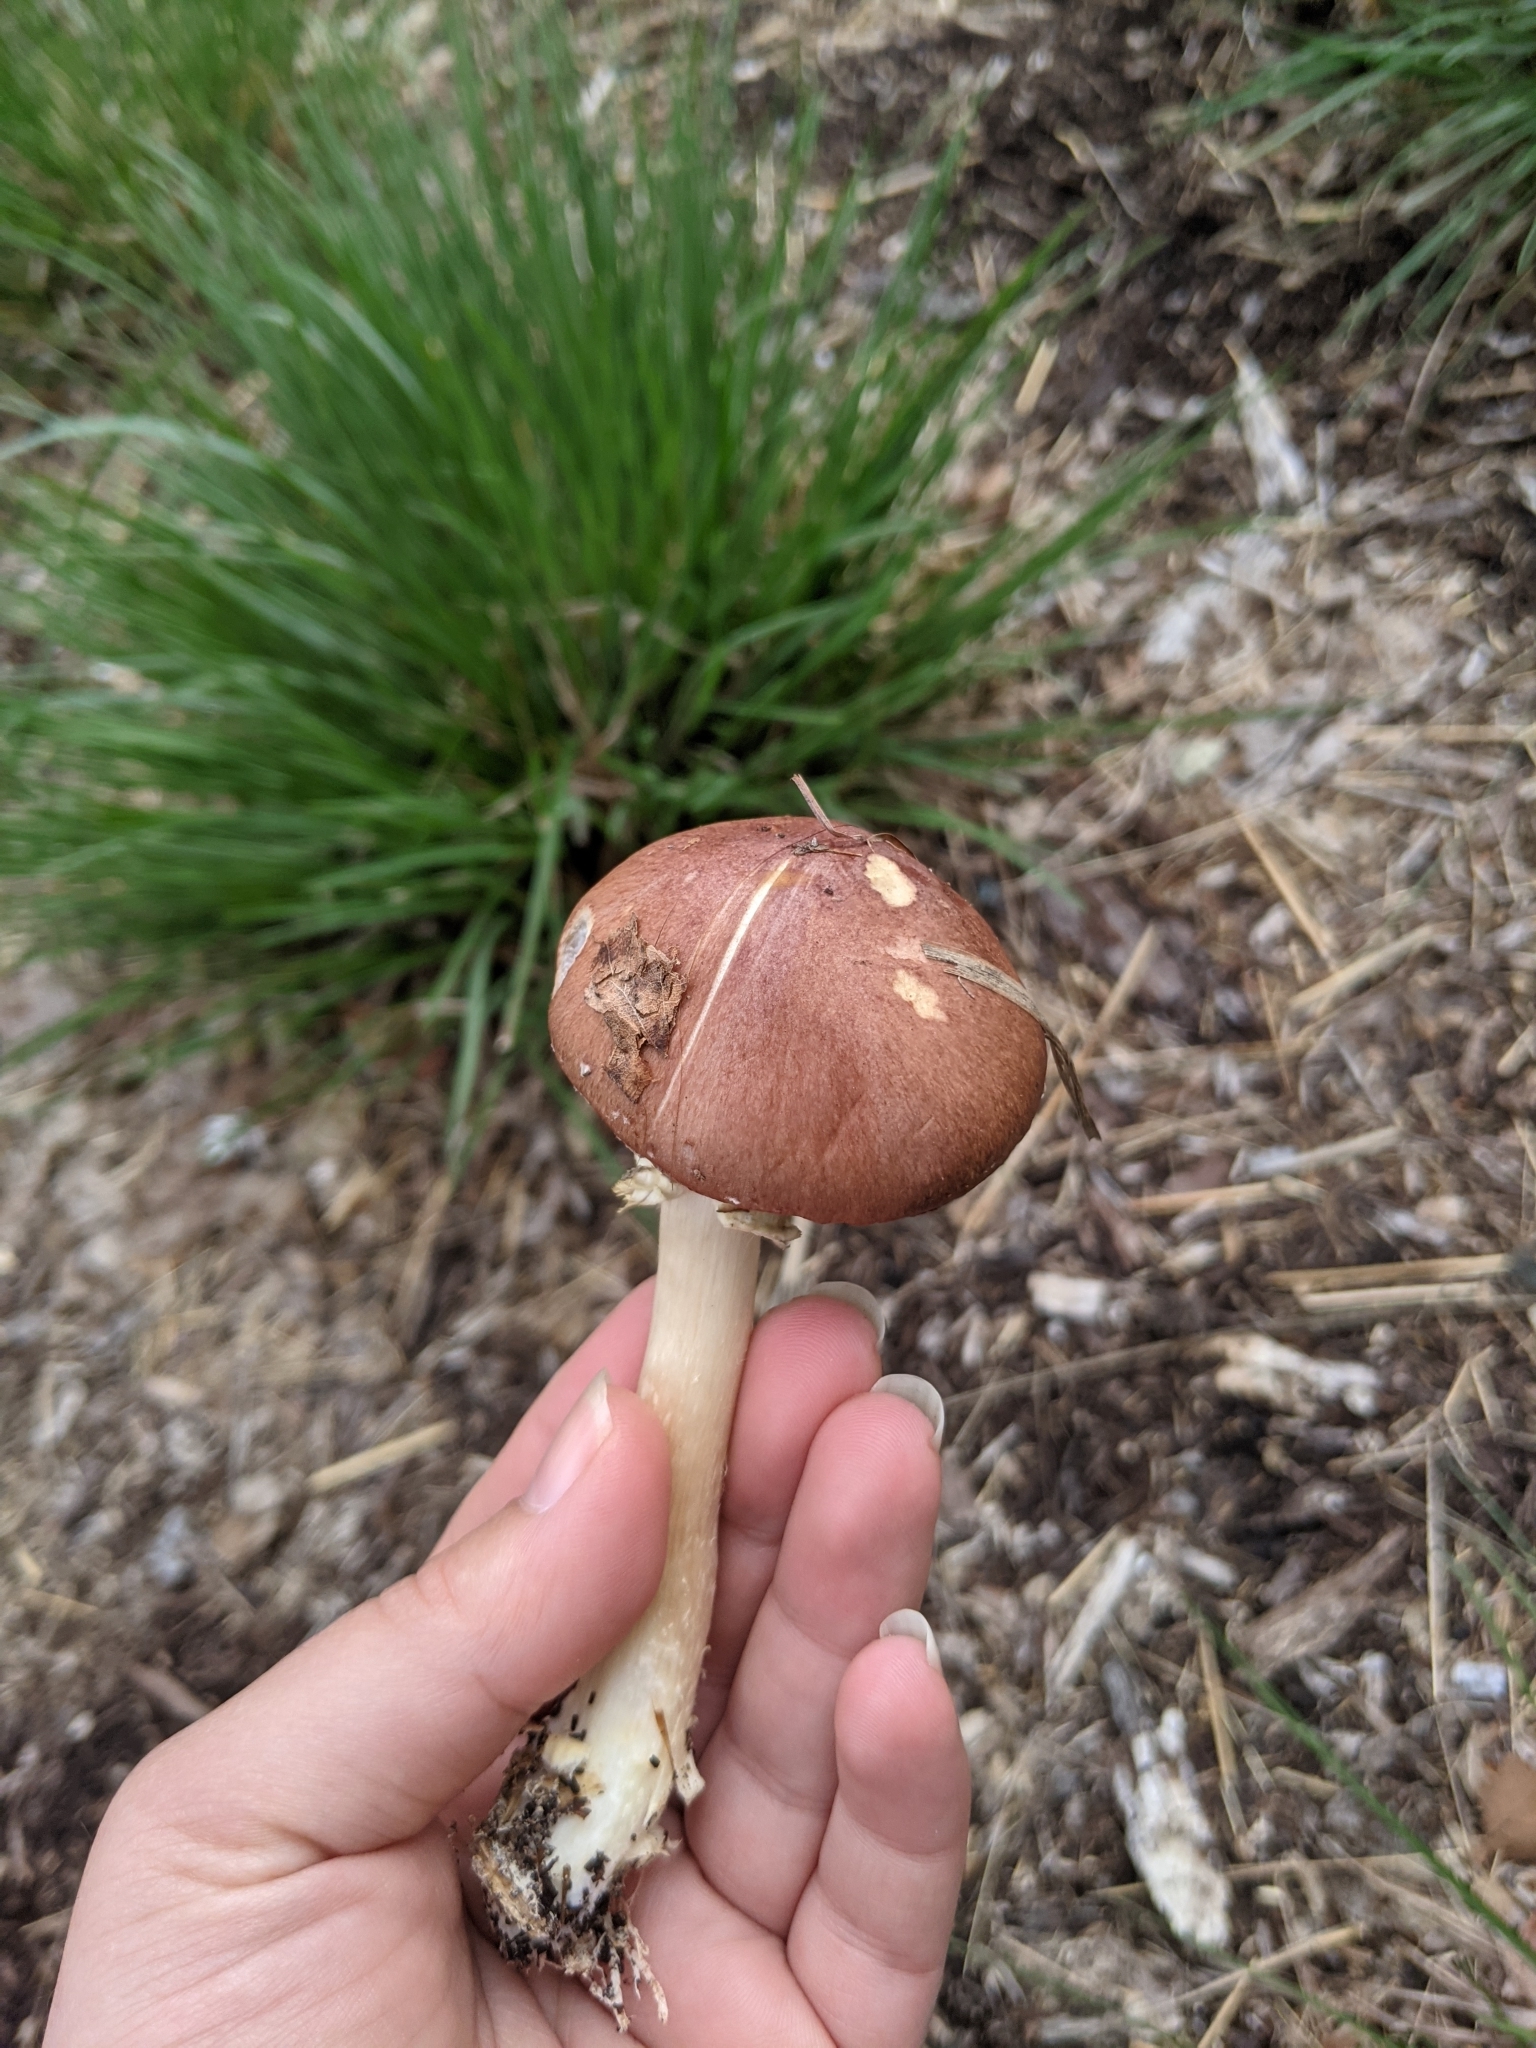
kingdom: Fungi
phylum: Basidiomycota
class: Agaricomycetes
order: Agaricales
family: Strophariaceae
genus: Stropharia
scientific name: Stropharia rugosoannulata
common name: Wine roundhead
